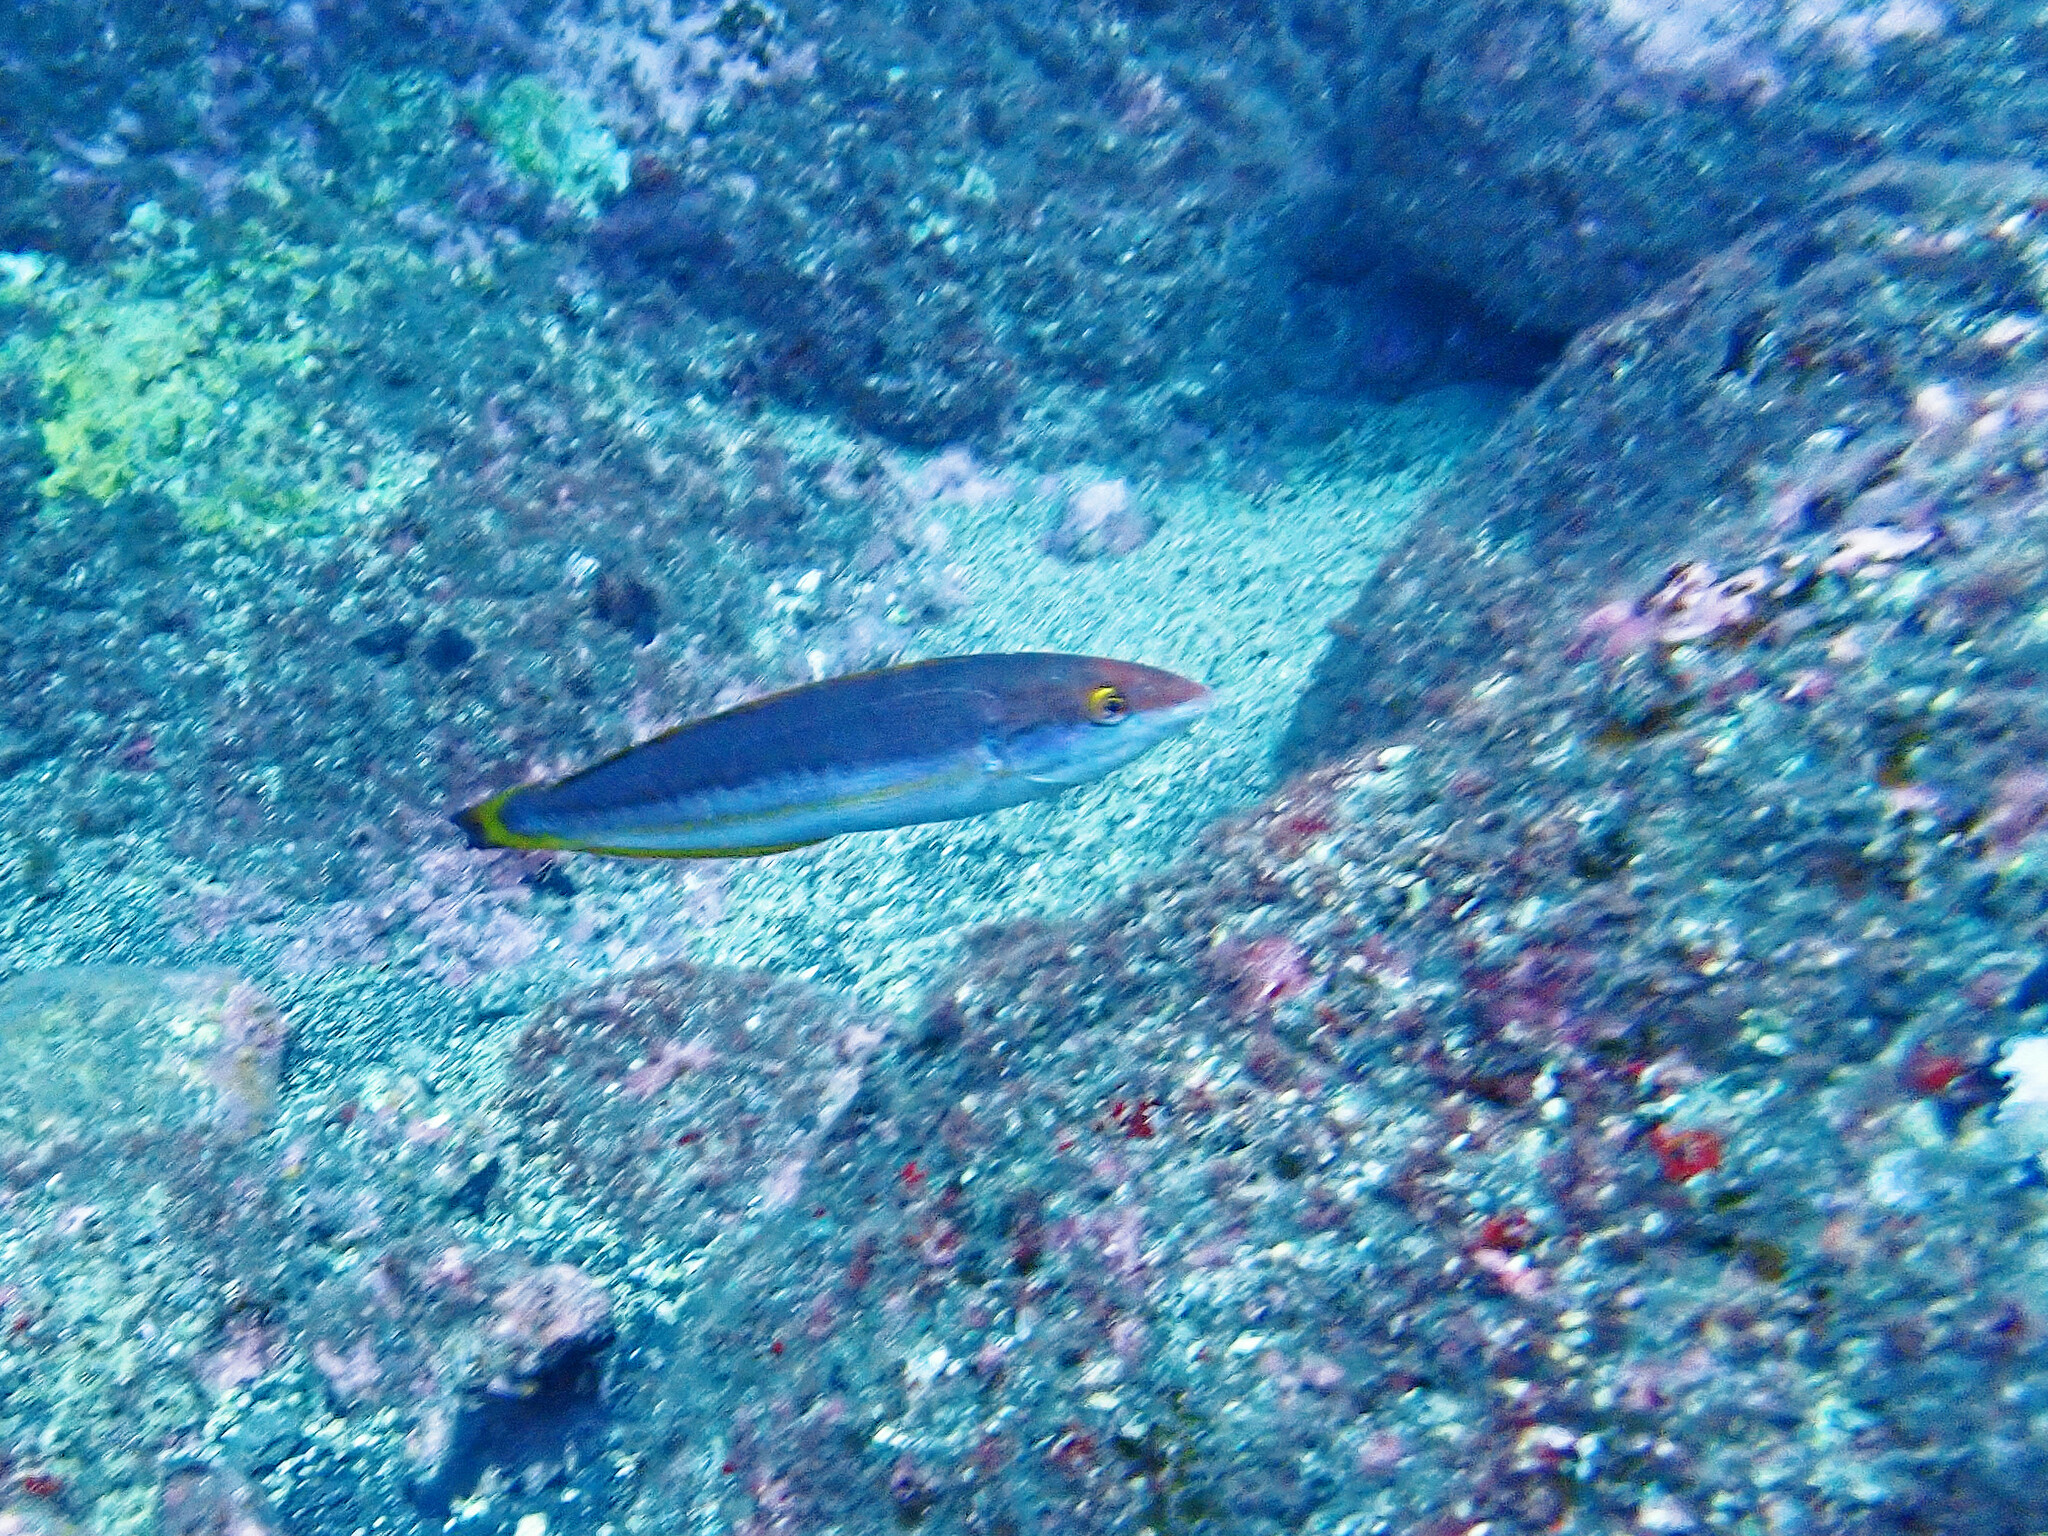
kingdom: Animalia
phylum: Chordata
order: Perciformes
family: Labridae
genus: Coris
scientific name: Coris
